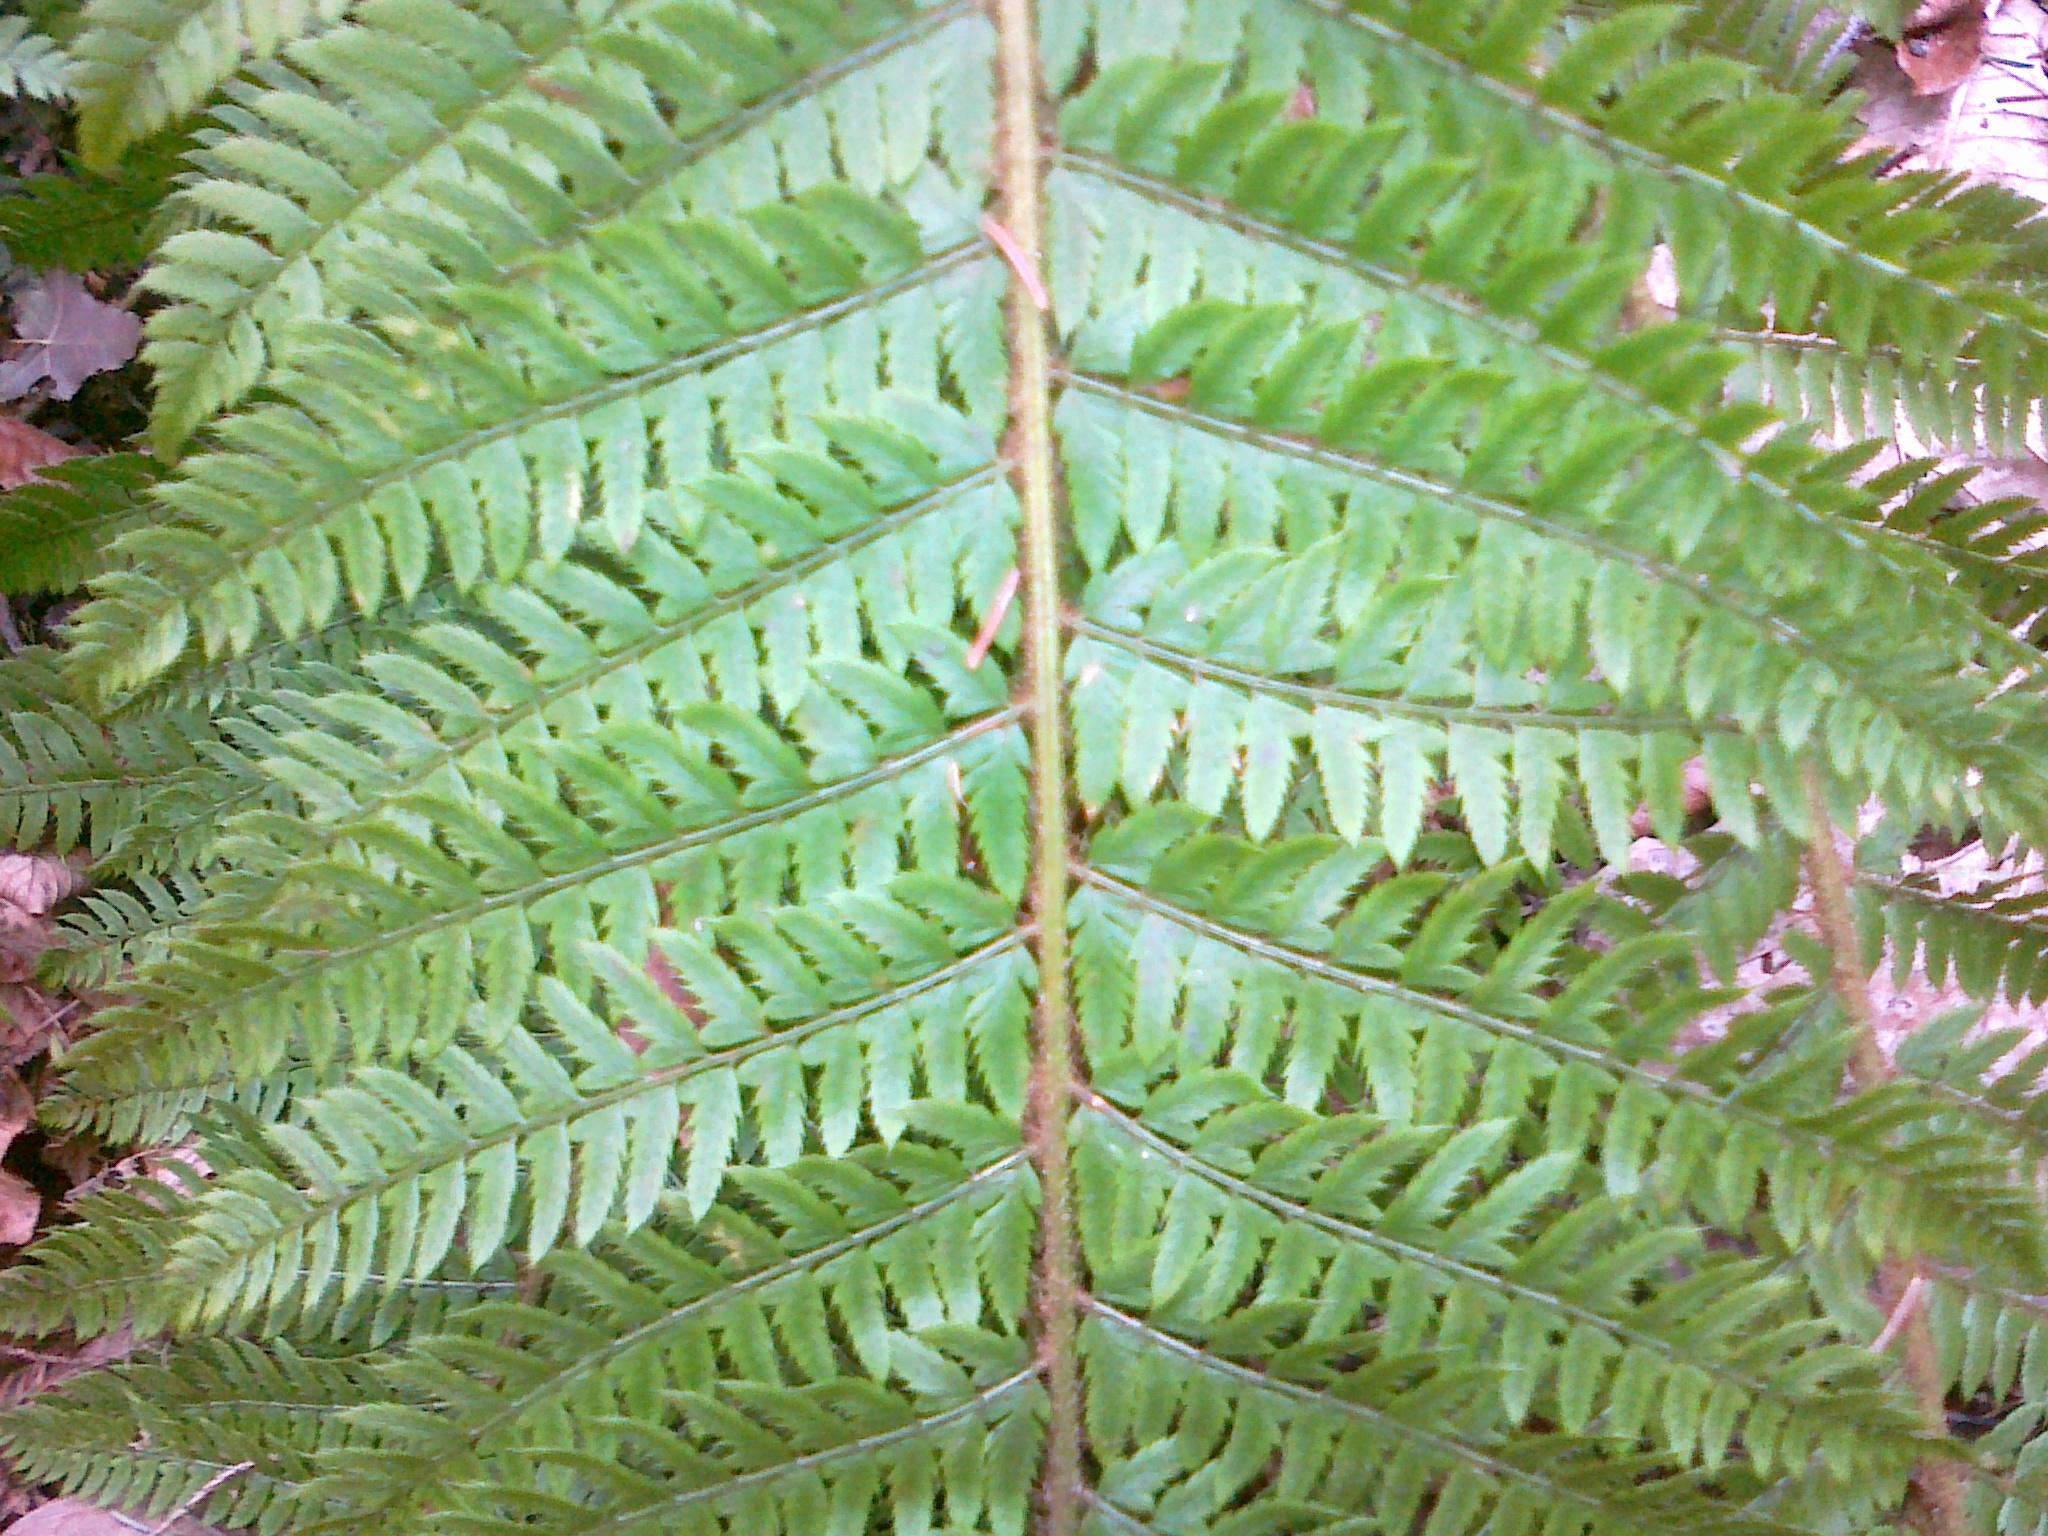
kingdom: Plantae
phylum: Tracheophyta
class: Polypodiopsida
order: Polypodiales
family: Dryopteridaceae
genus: Polystichum
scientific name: Polystichum aculeatum
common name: Hard shield-fern
